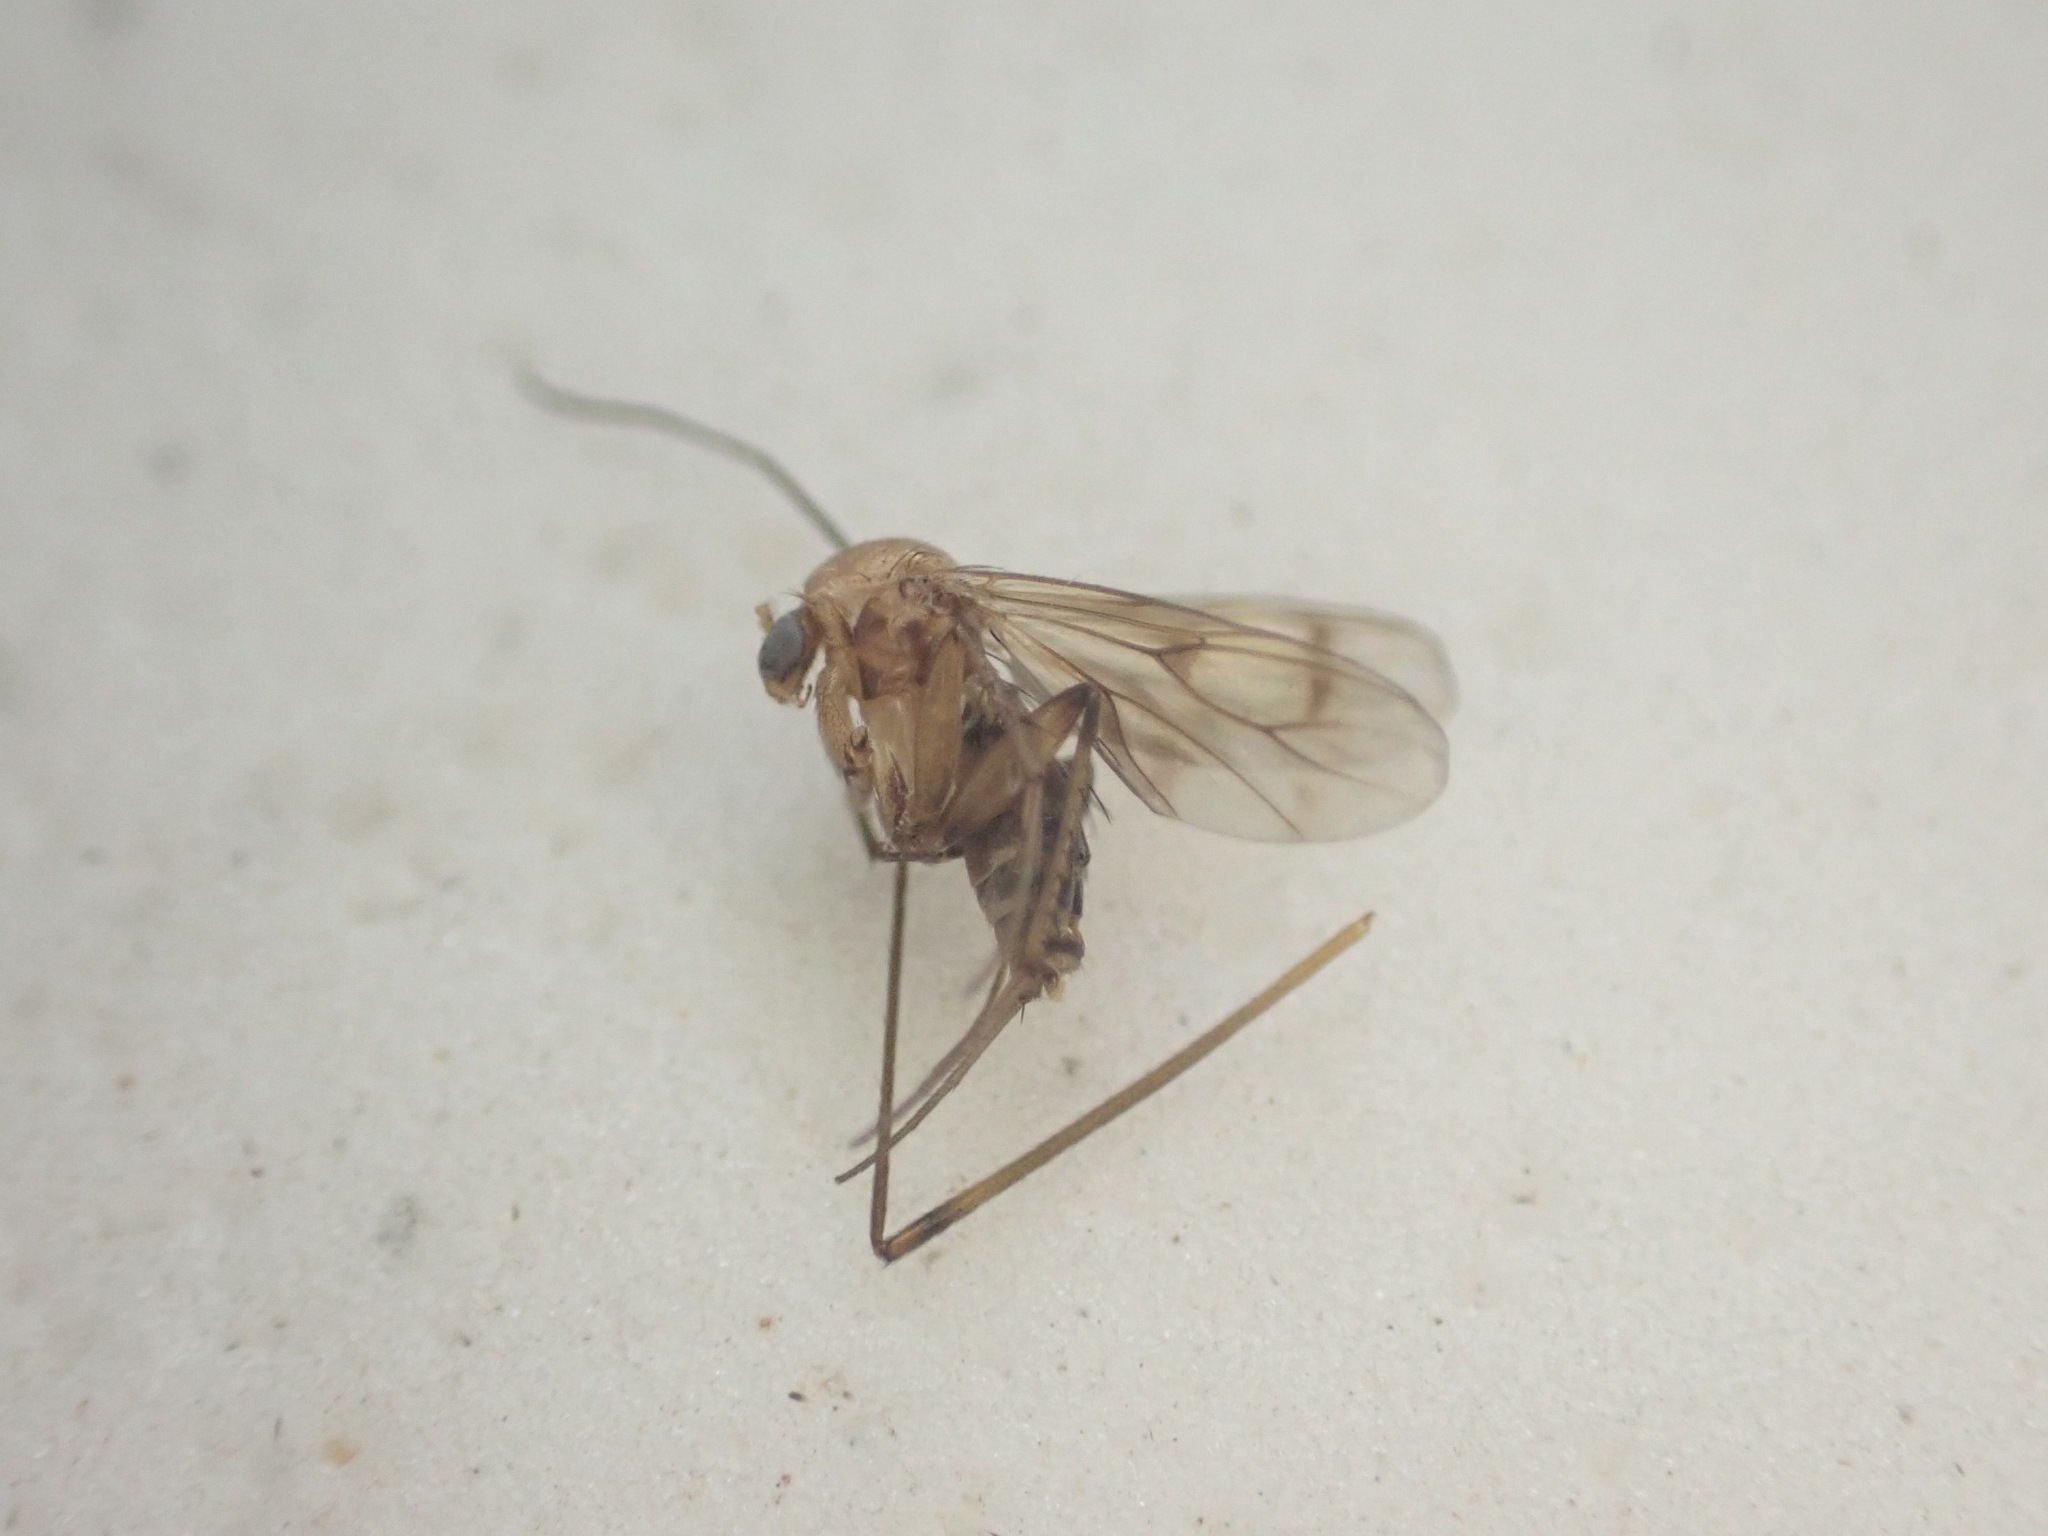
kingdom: Animalia
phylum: Arthropoda
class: Insecta
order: Diptera
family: Mycetophilidae
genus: Anomalomyia
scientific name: Anomalomyia guttata
